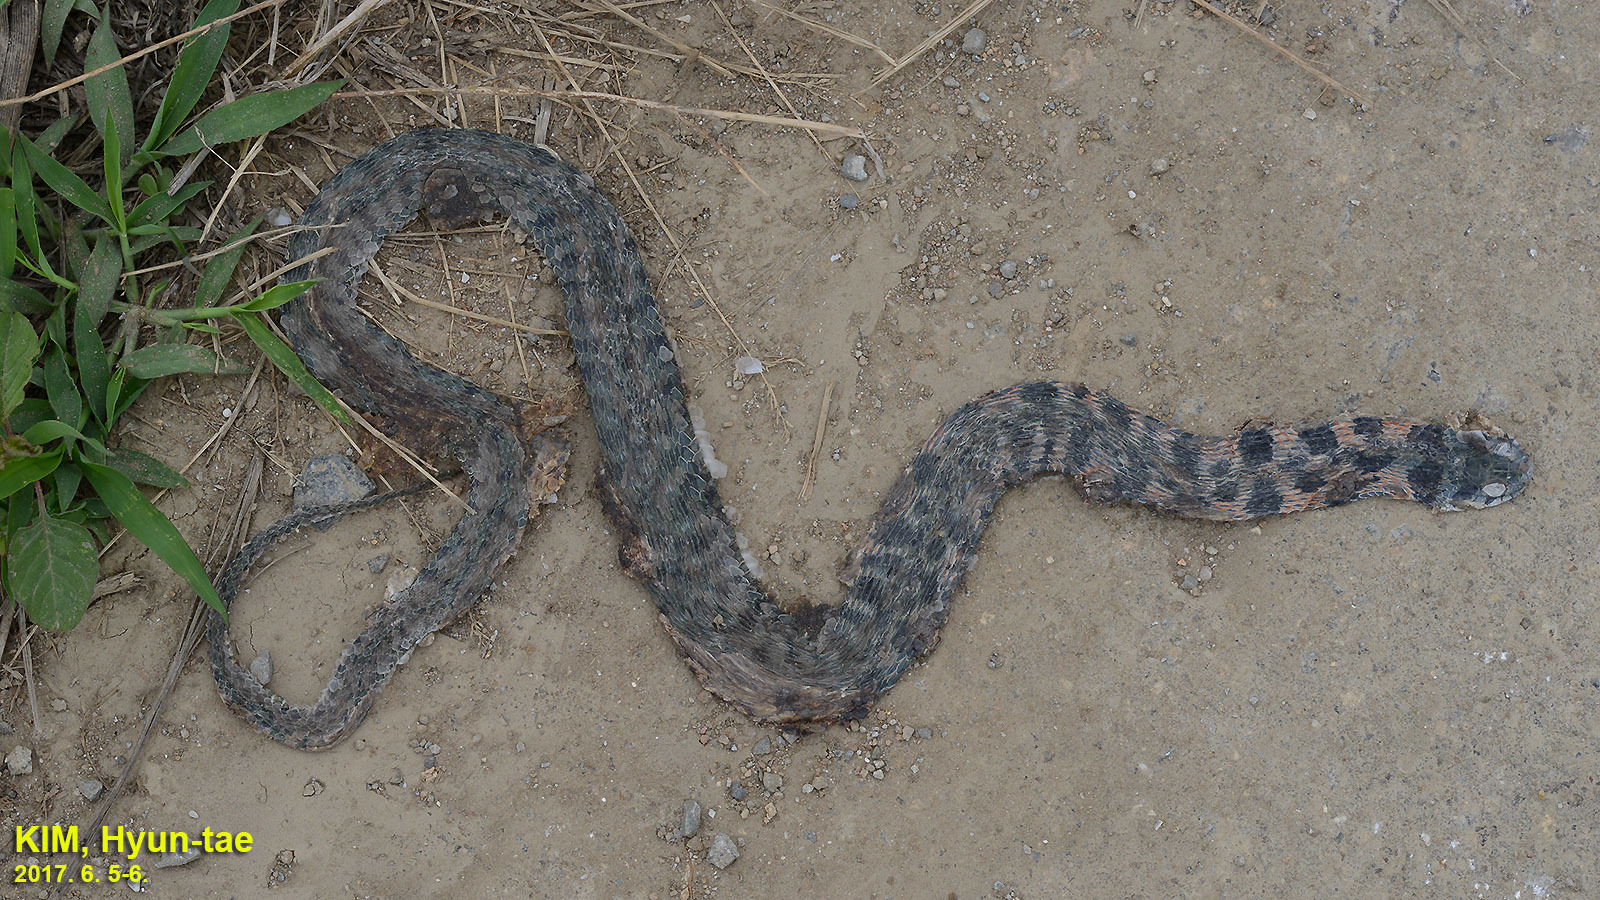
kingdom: Animalia
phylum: Chordata
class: Squamata
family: Colubridae
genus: Rhabdophis
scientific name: Rhabdophis tigrinus
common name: Tiger keelback
